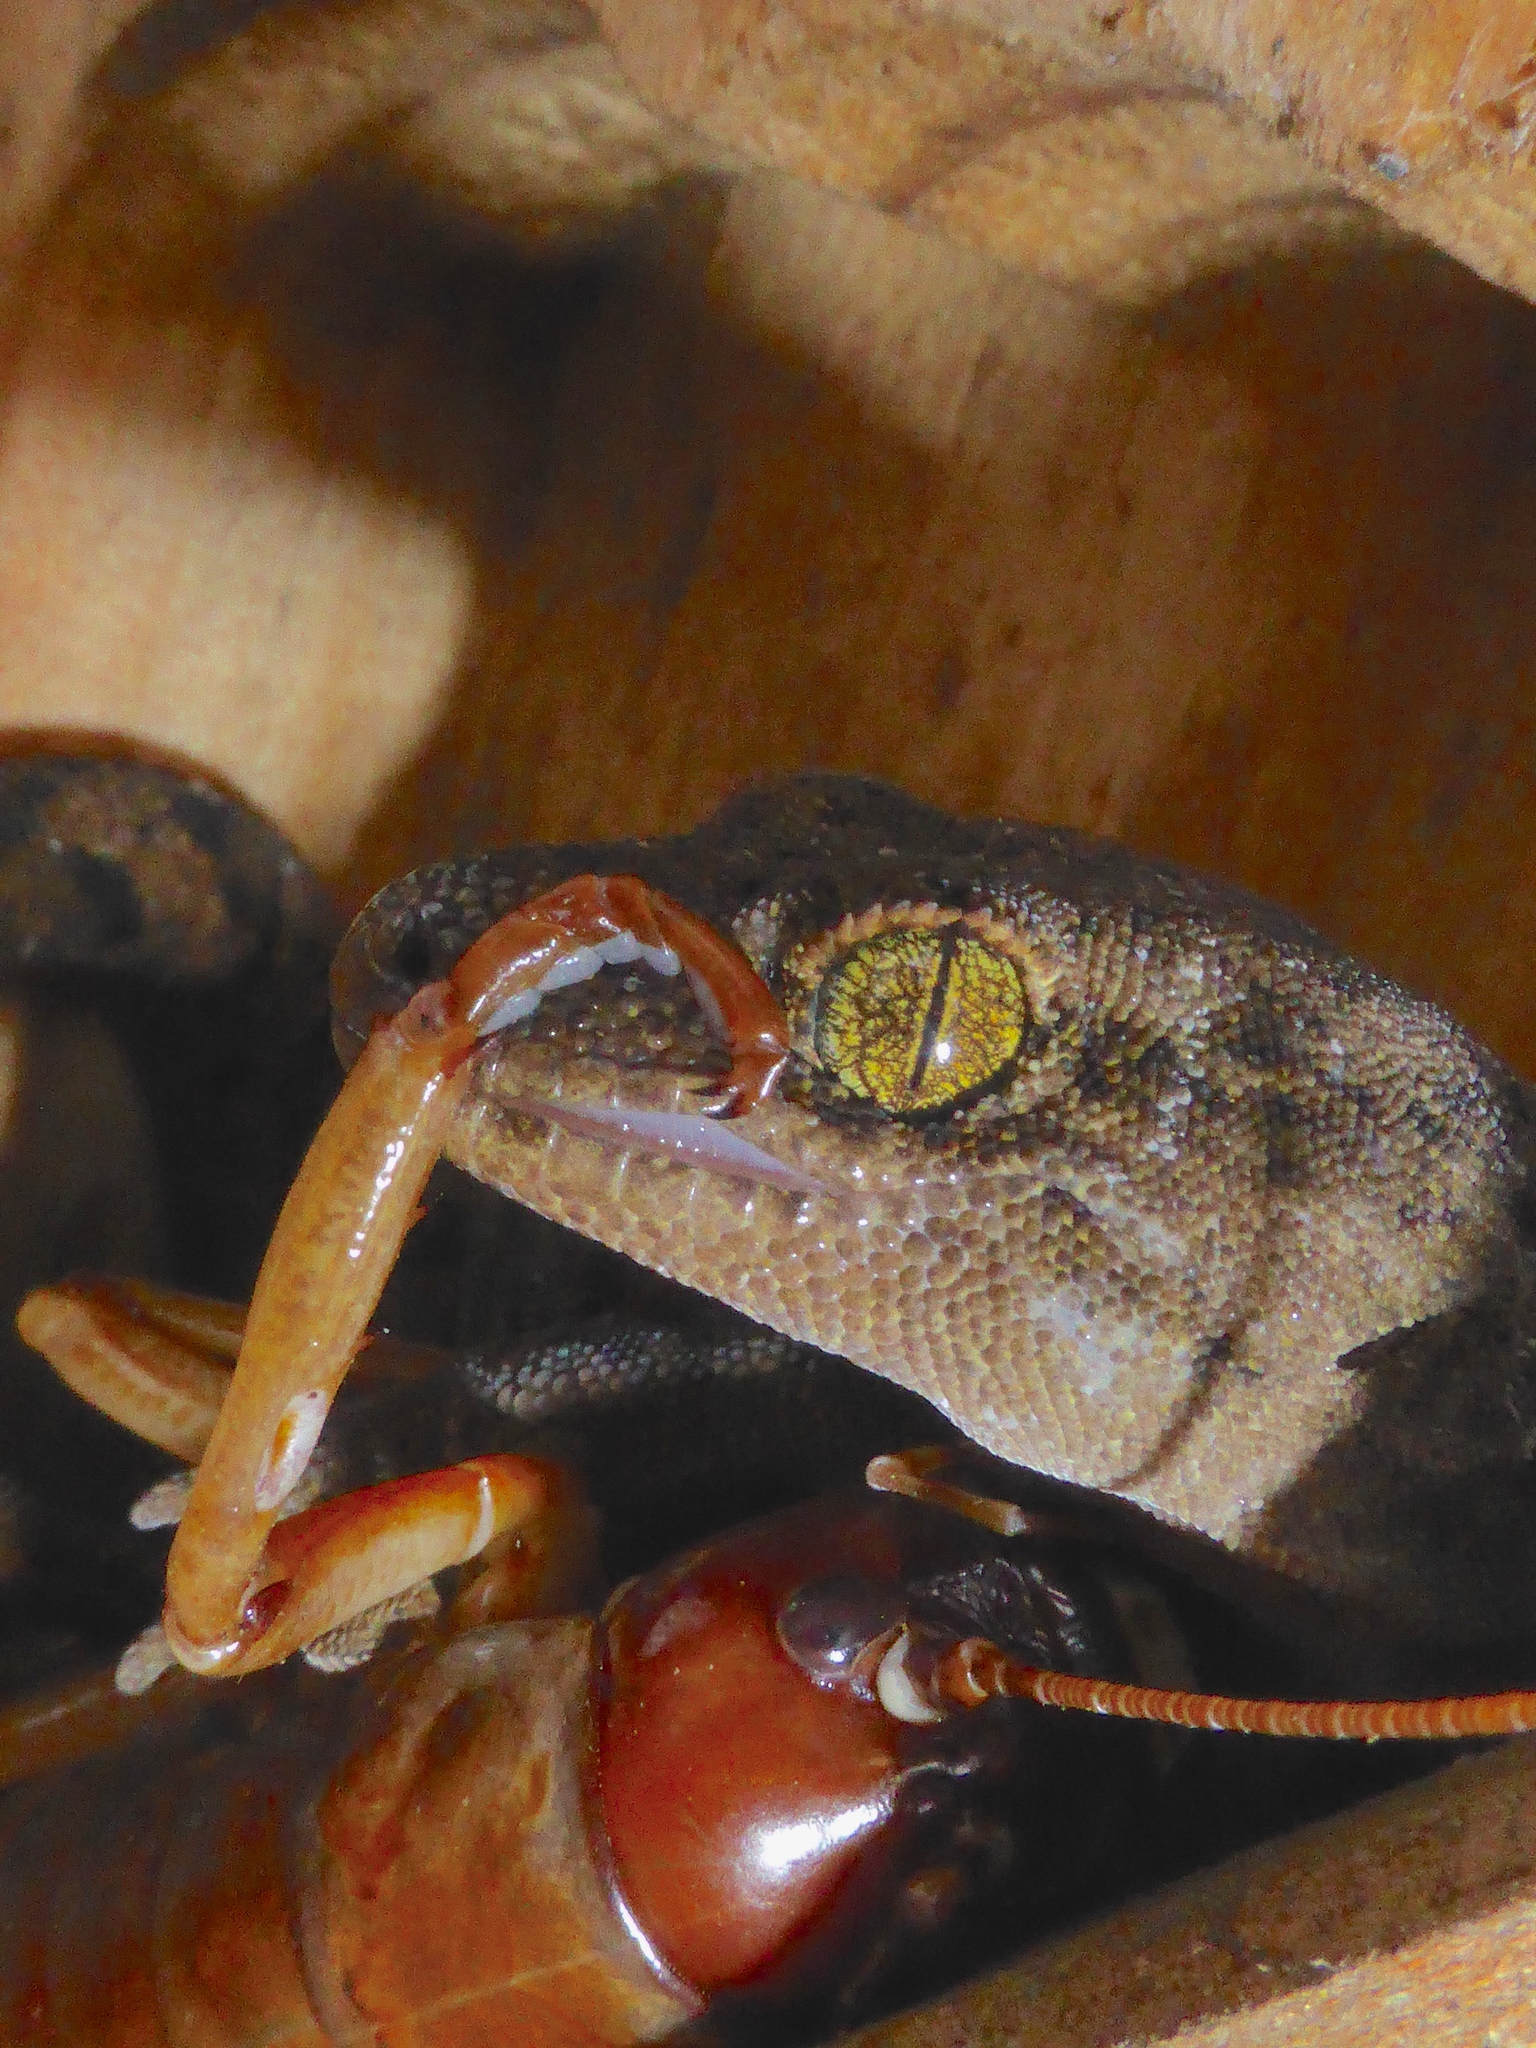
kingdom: Animalia
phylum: Chordata
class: Squamata
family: Diplodactylidae
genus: Woodworthia
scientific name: Woodworthia brunnea
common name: Canterbury gecko
